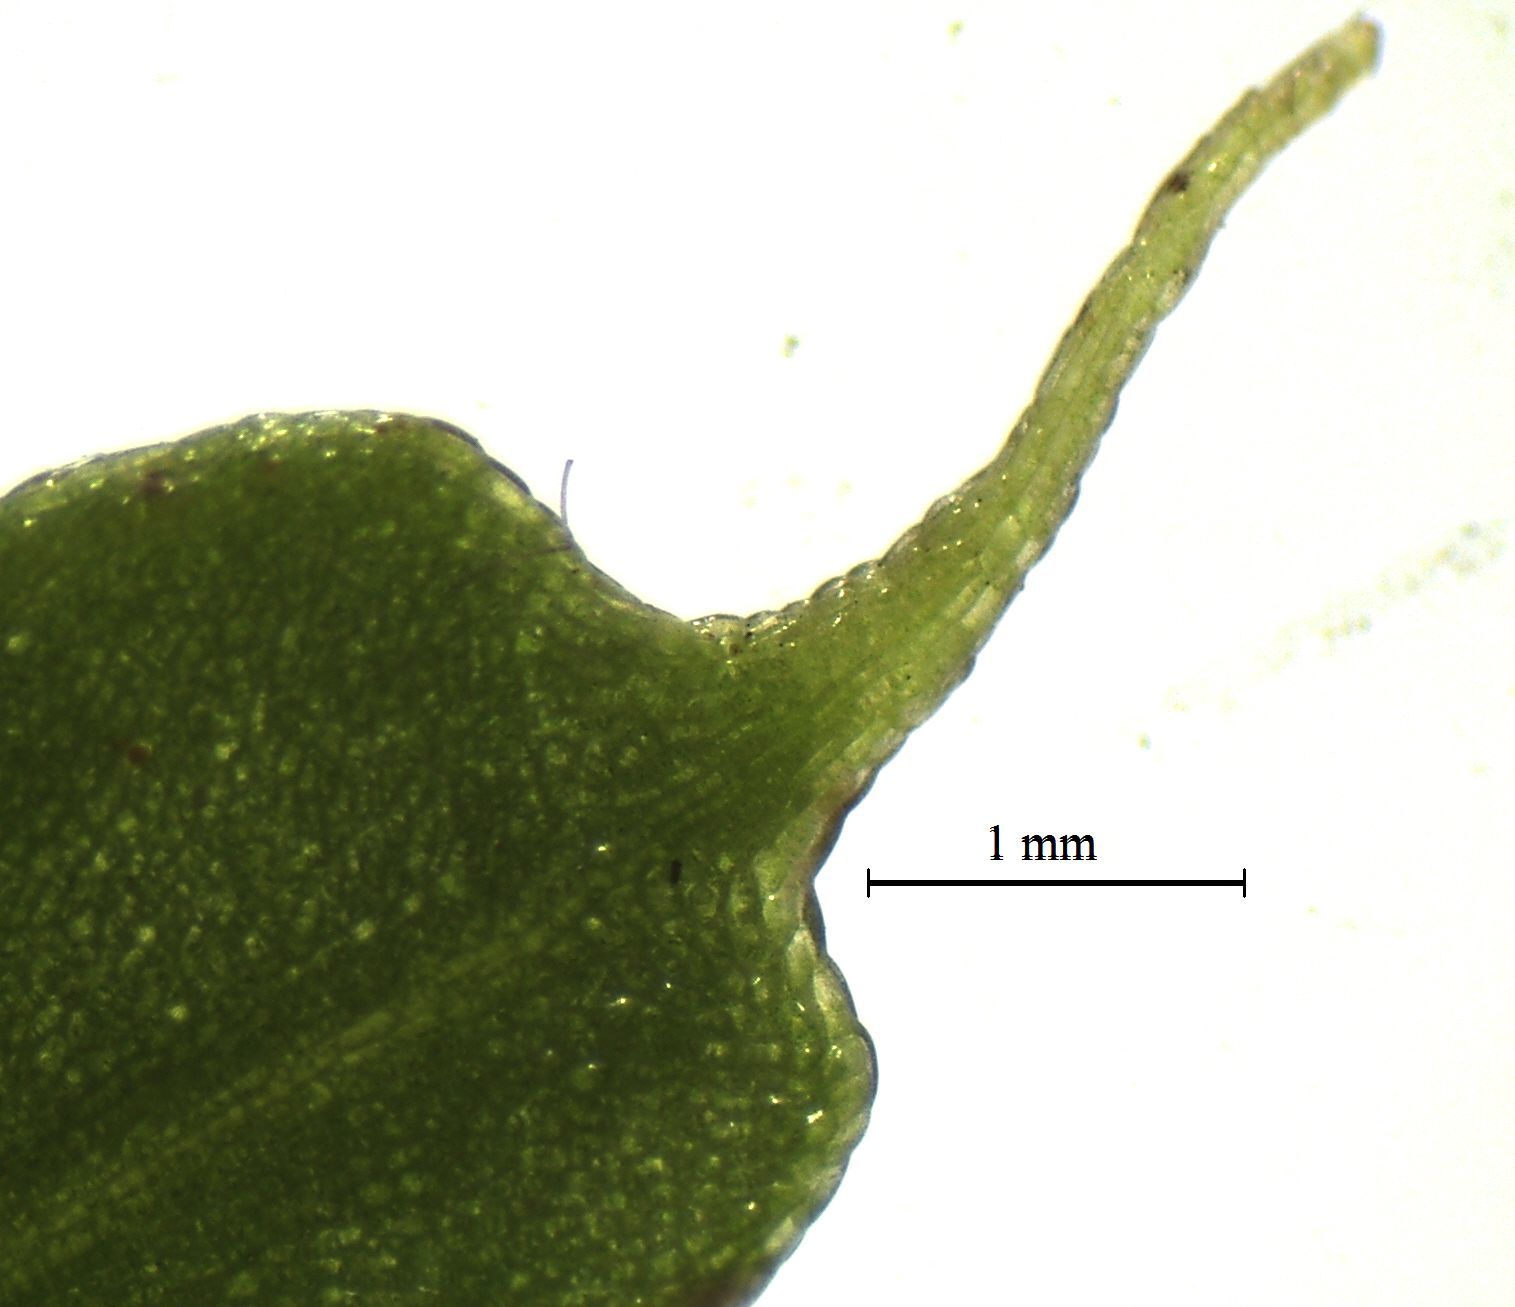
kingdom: Plantae
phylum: Tracheophyta
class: Polypodiopsida
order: Psilotales
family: Psilotaceae
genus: Tmesipteris
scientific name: Tmesipteris tannensis
